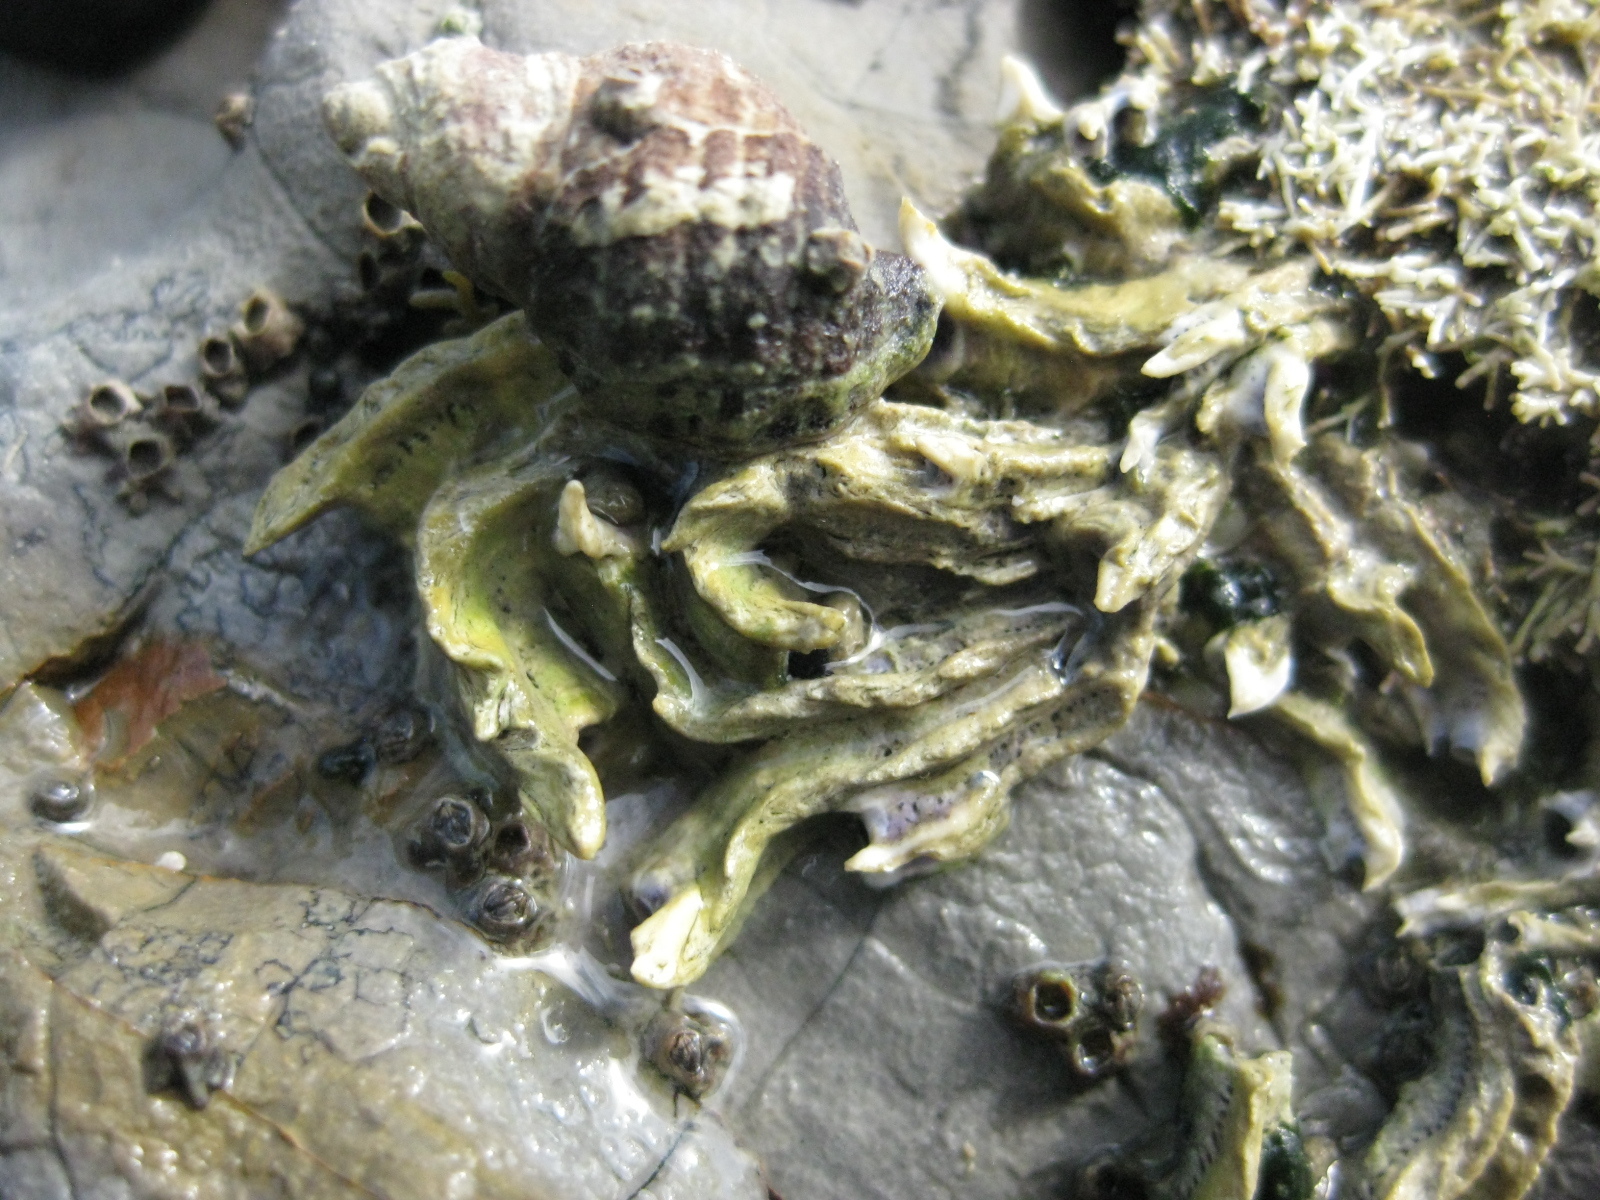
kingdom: Animalia
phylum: Annelida
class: Polychaeta
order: Sabellida
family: Serpulidae
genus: Spirobranchus
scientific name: Spirobranchus cariniferus
